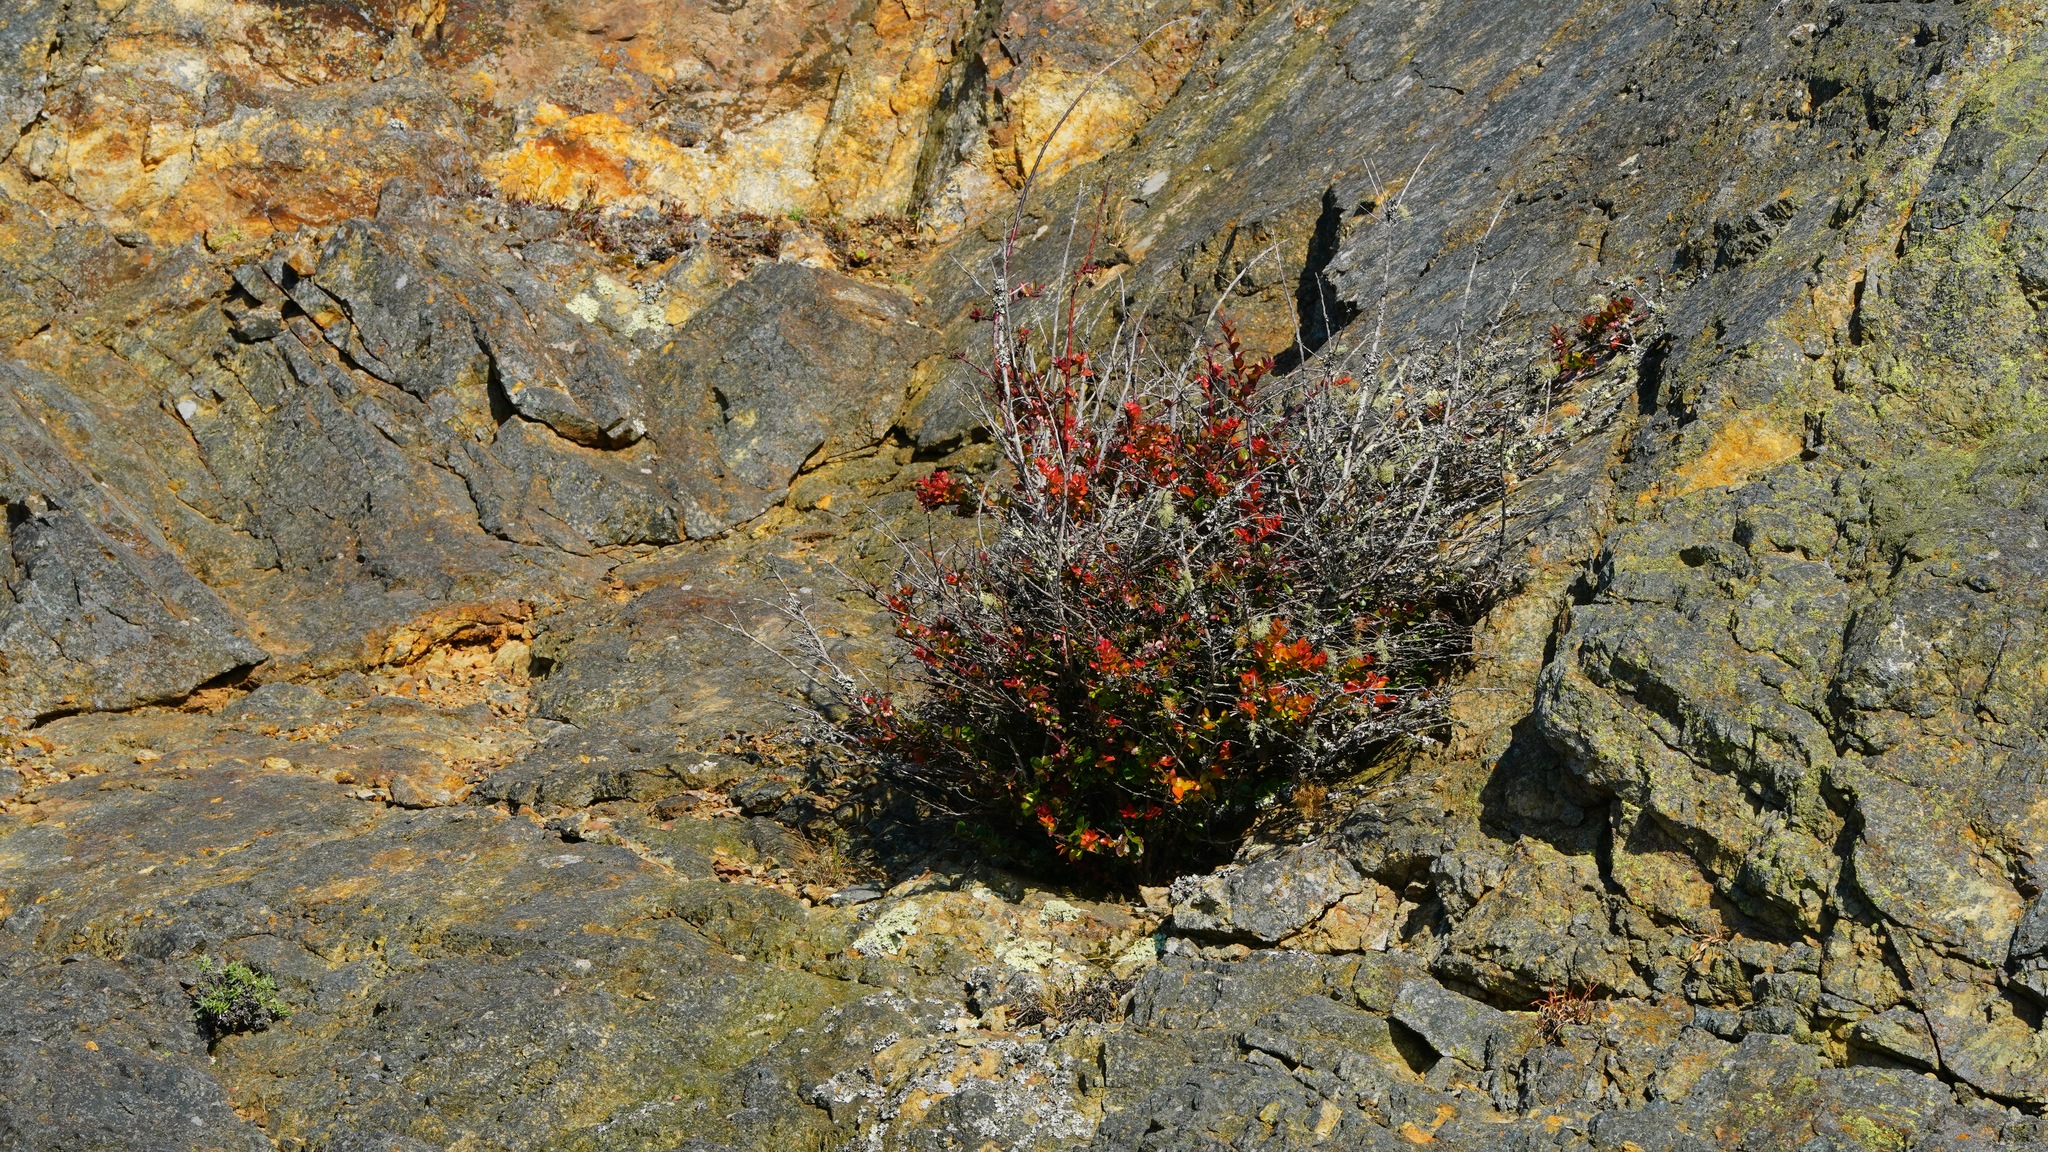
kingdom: Plantae
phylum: Tracheophyta
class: Magnoliopsida
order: Ericales
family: Ericaceae
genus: Vaccinium
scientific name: Vaccinium ovatum
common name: California-huckleberry
